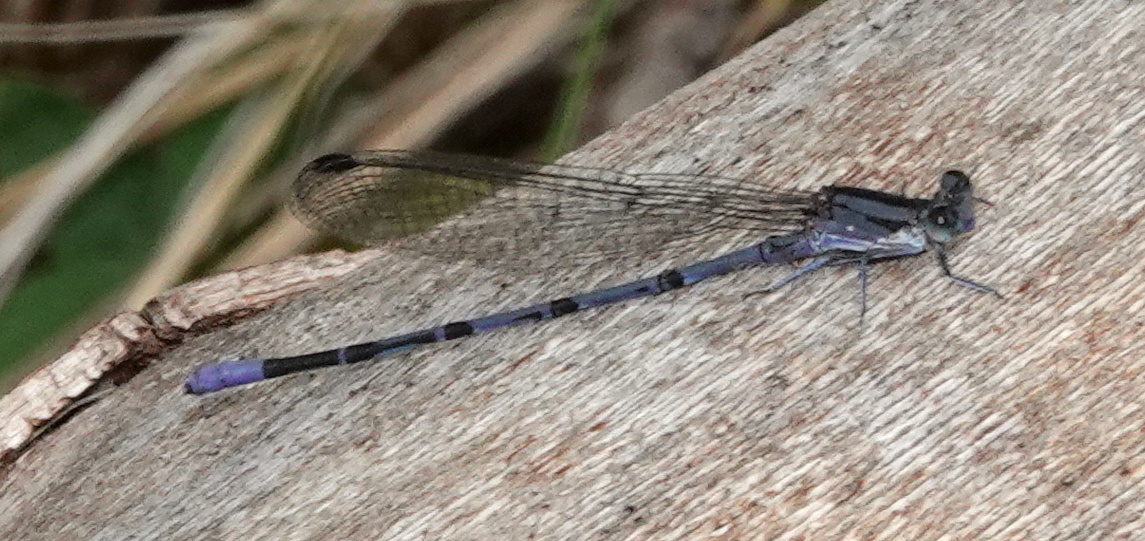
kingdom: Animalia
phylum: Arthropoda
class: Insecta
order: Odonata
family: Coenagrionidae
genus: Argia
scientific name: Argia funebris
